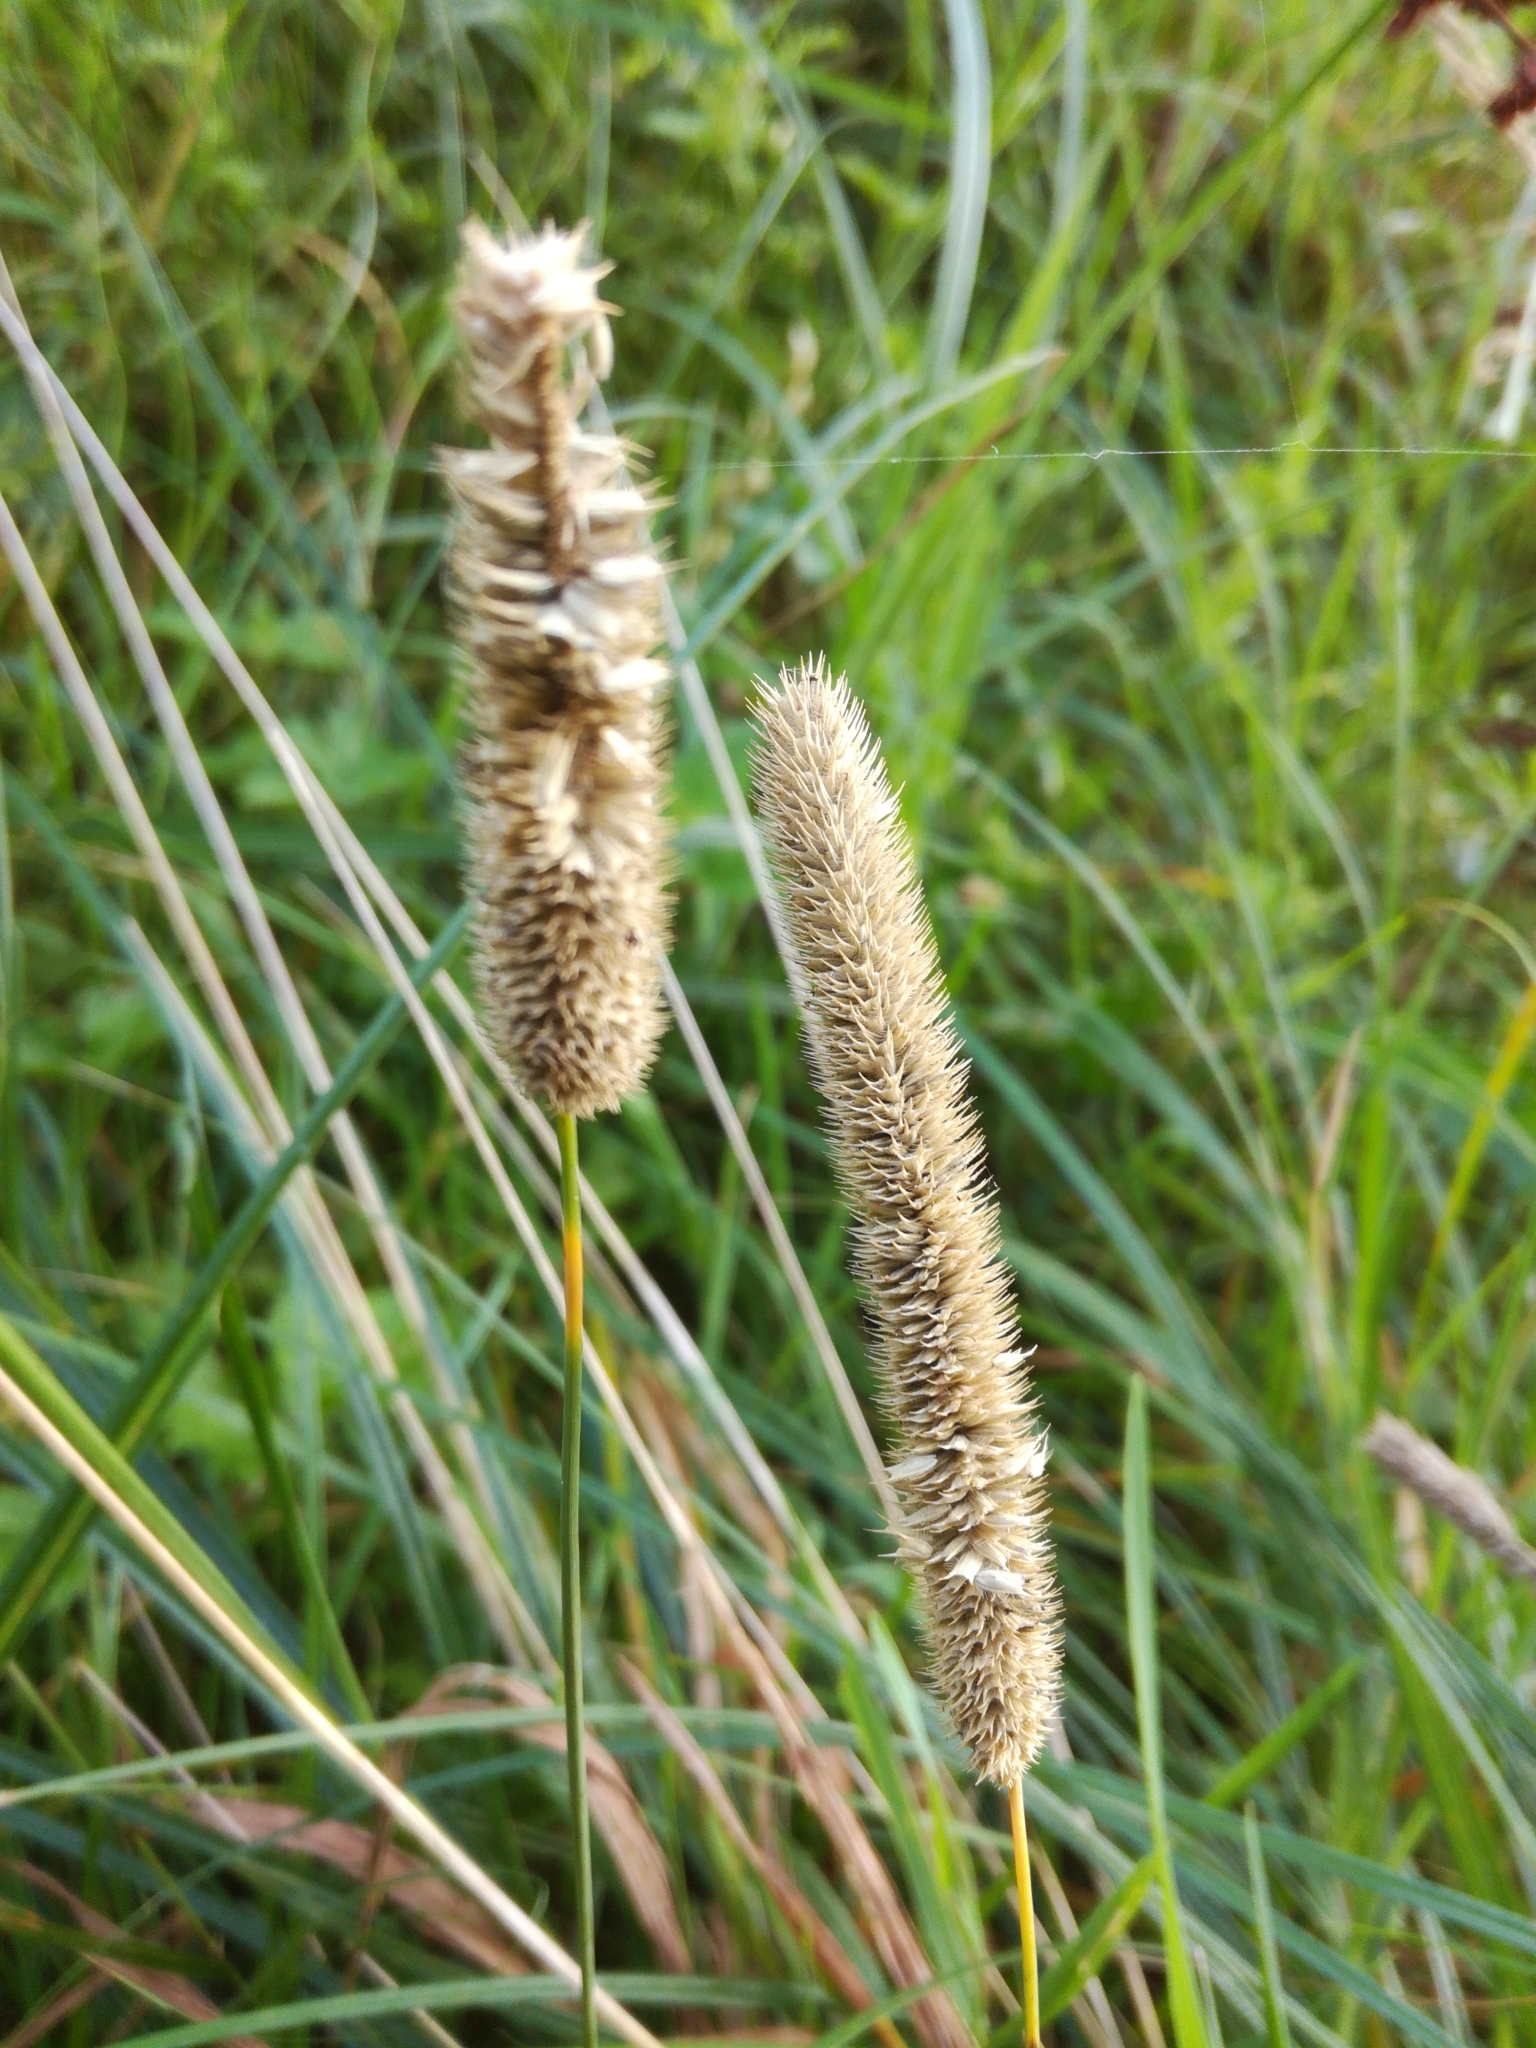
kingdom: Plantae
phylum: Tracheophyta
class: Liliopsida
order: Poales
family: Poaceae
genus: Phleum
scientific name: Phleum pratense
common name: Timothy grass
